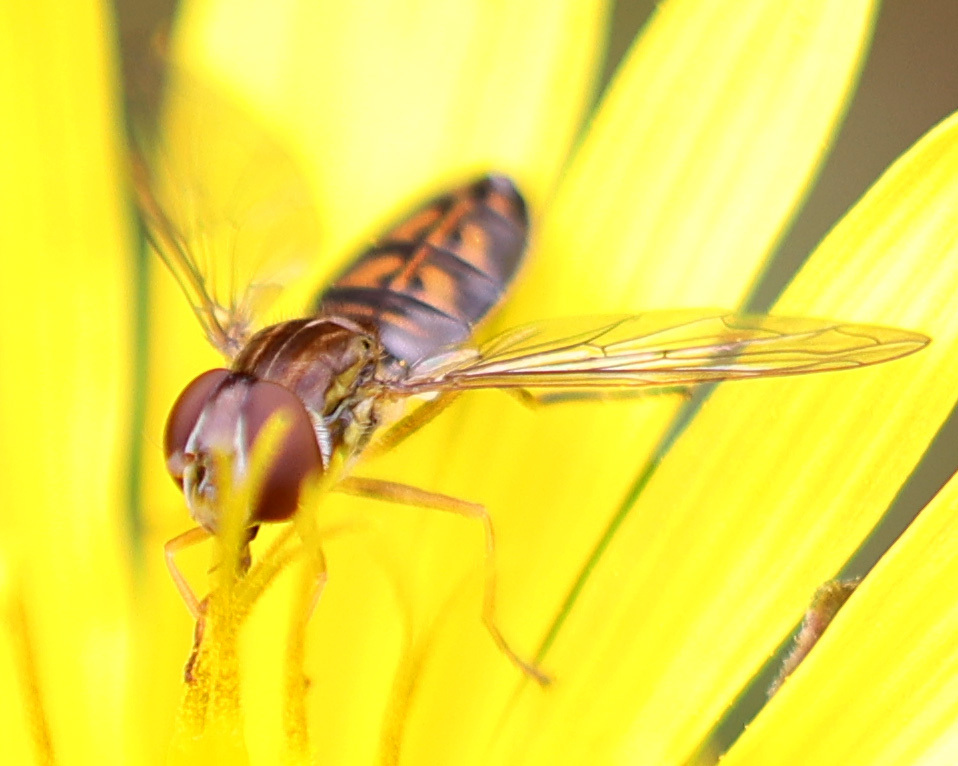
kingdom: Animalia
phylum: Arthropoda
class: Insecta
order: Diptera
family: Syrphidae
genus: Toxomerus
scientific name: Toxomerus marginatus
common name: Syrphid fly
